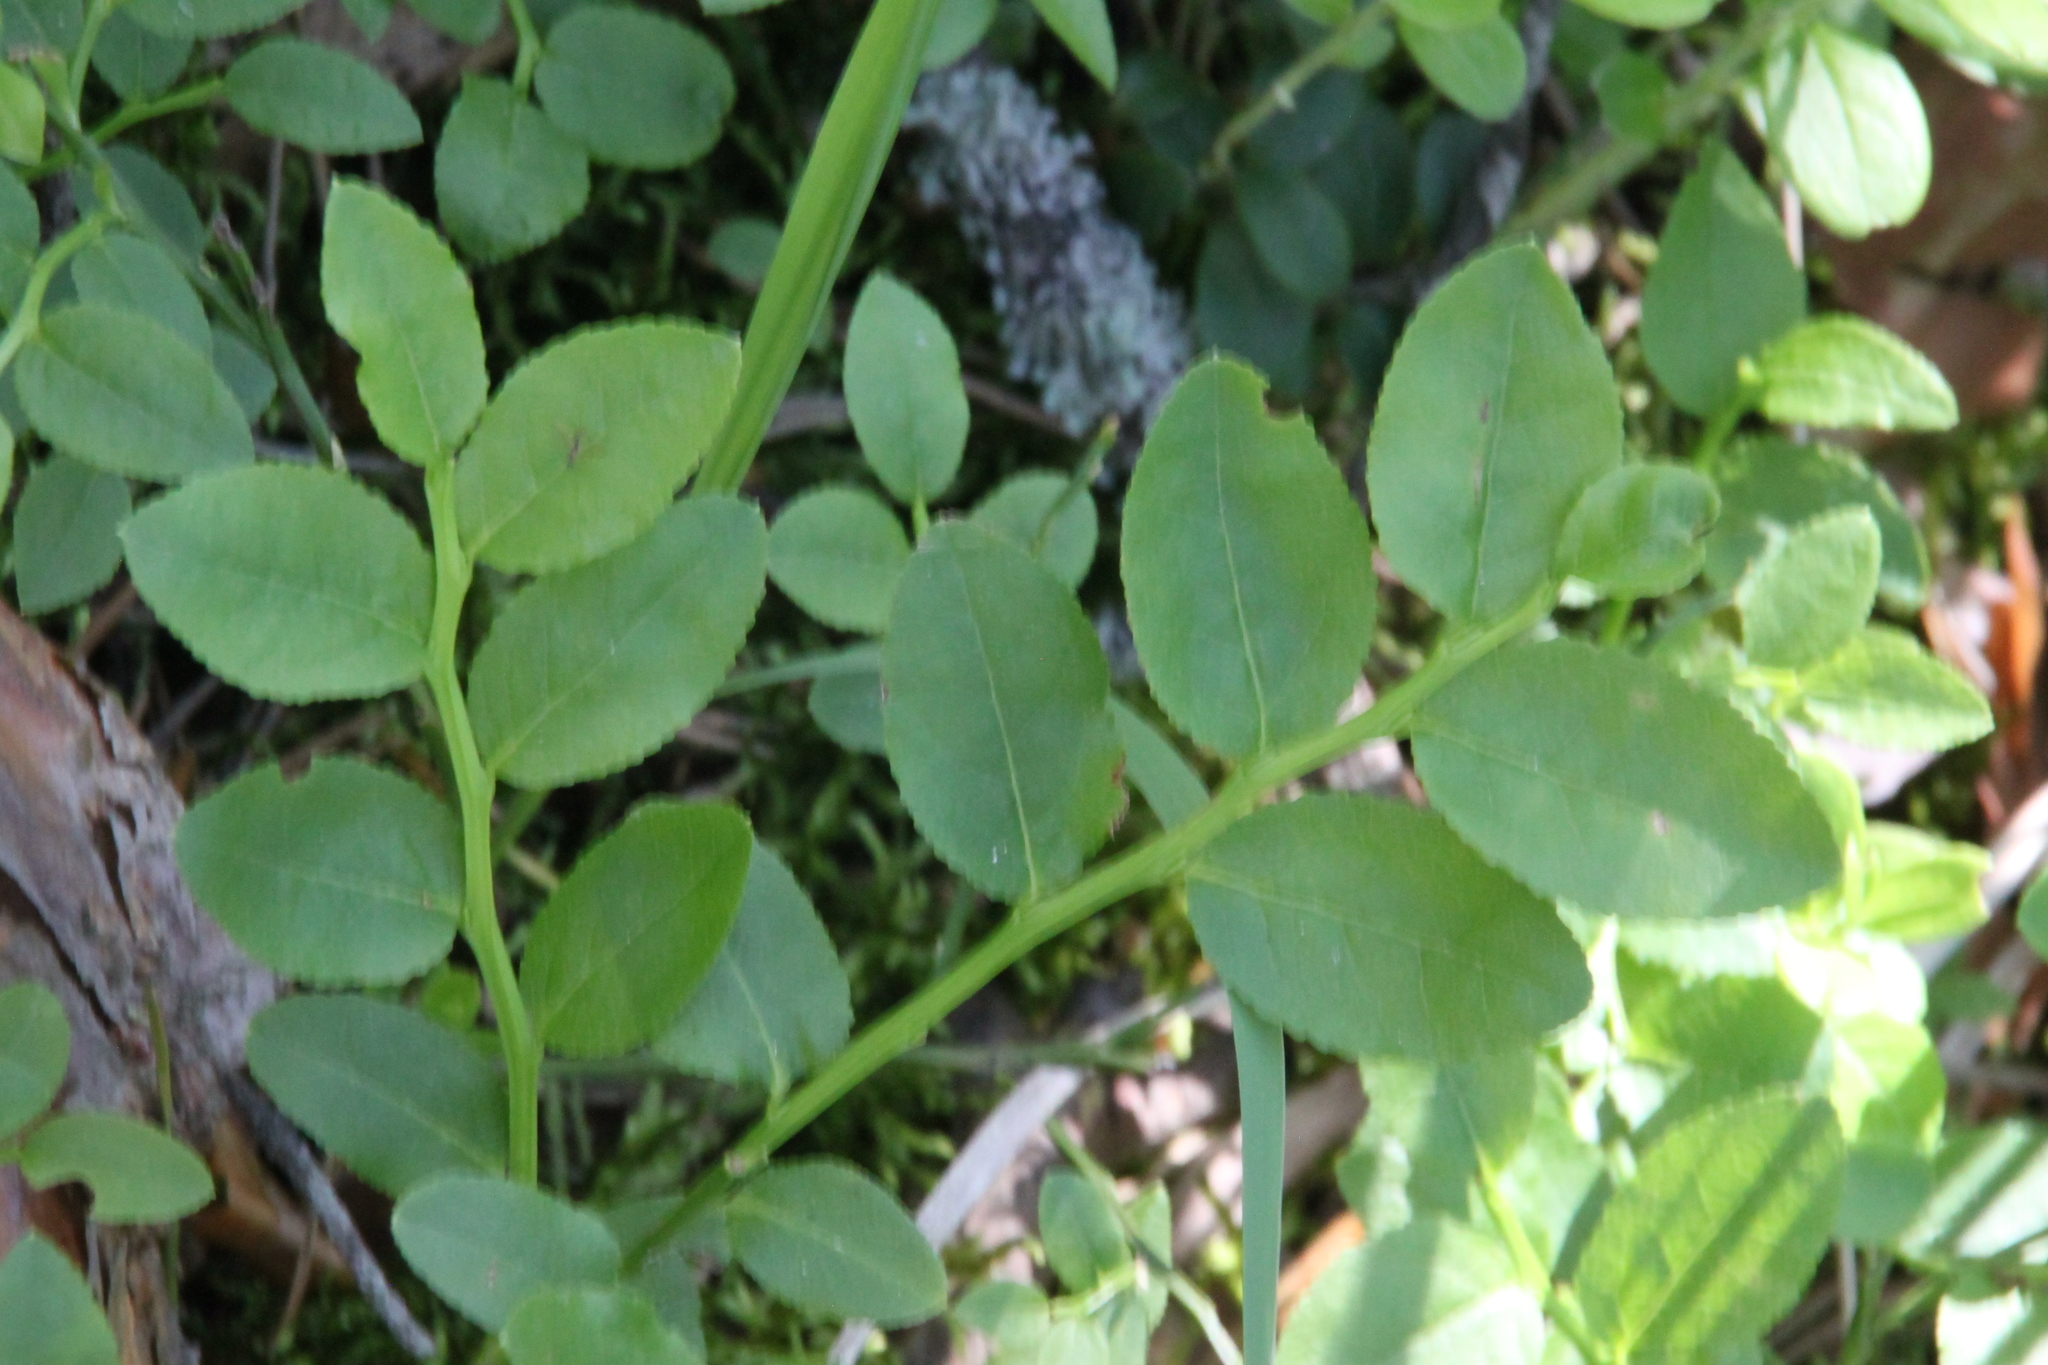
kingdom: Plantae
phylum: Tracheophyta
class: Magnoliopsida
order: Ericales
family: Ericaceae
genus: Vaccinium
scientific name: Vaccinium myrtillus
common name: Bilberry
